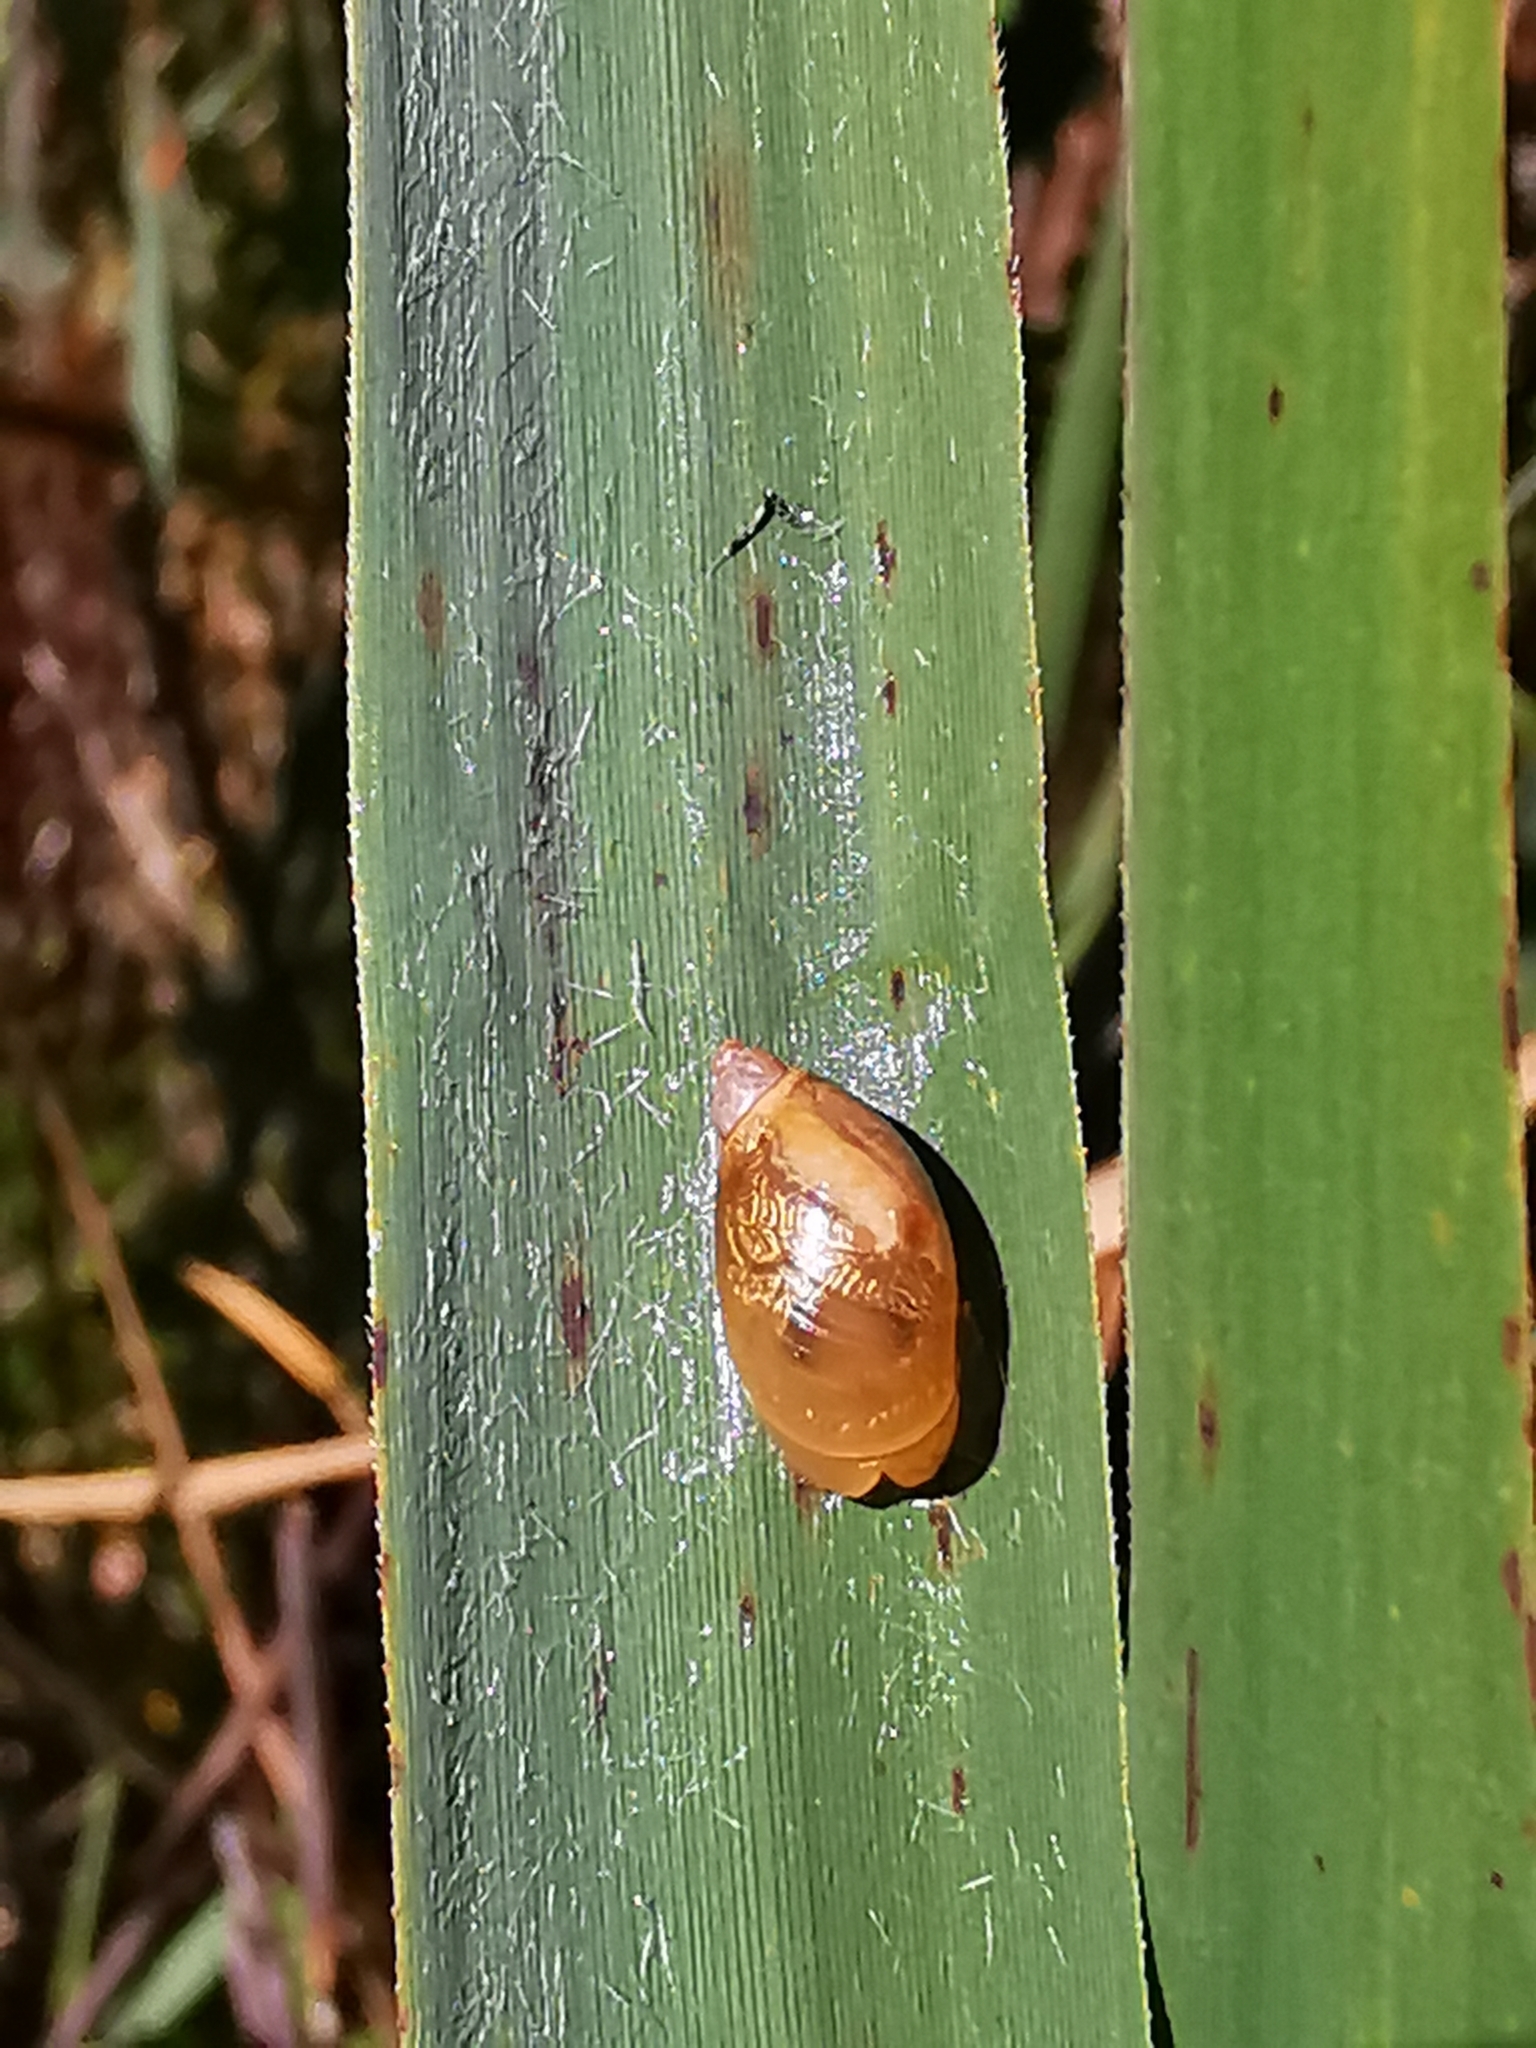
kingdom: Animalia
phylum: Mollusca
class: Gastropoda
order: Stylommatophora
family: Succineidae
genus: Succinea
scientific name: Succinea putris
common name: European ambersnail
